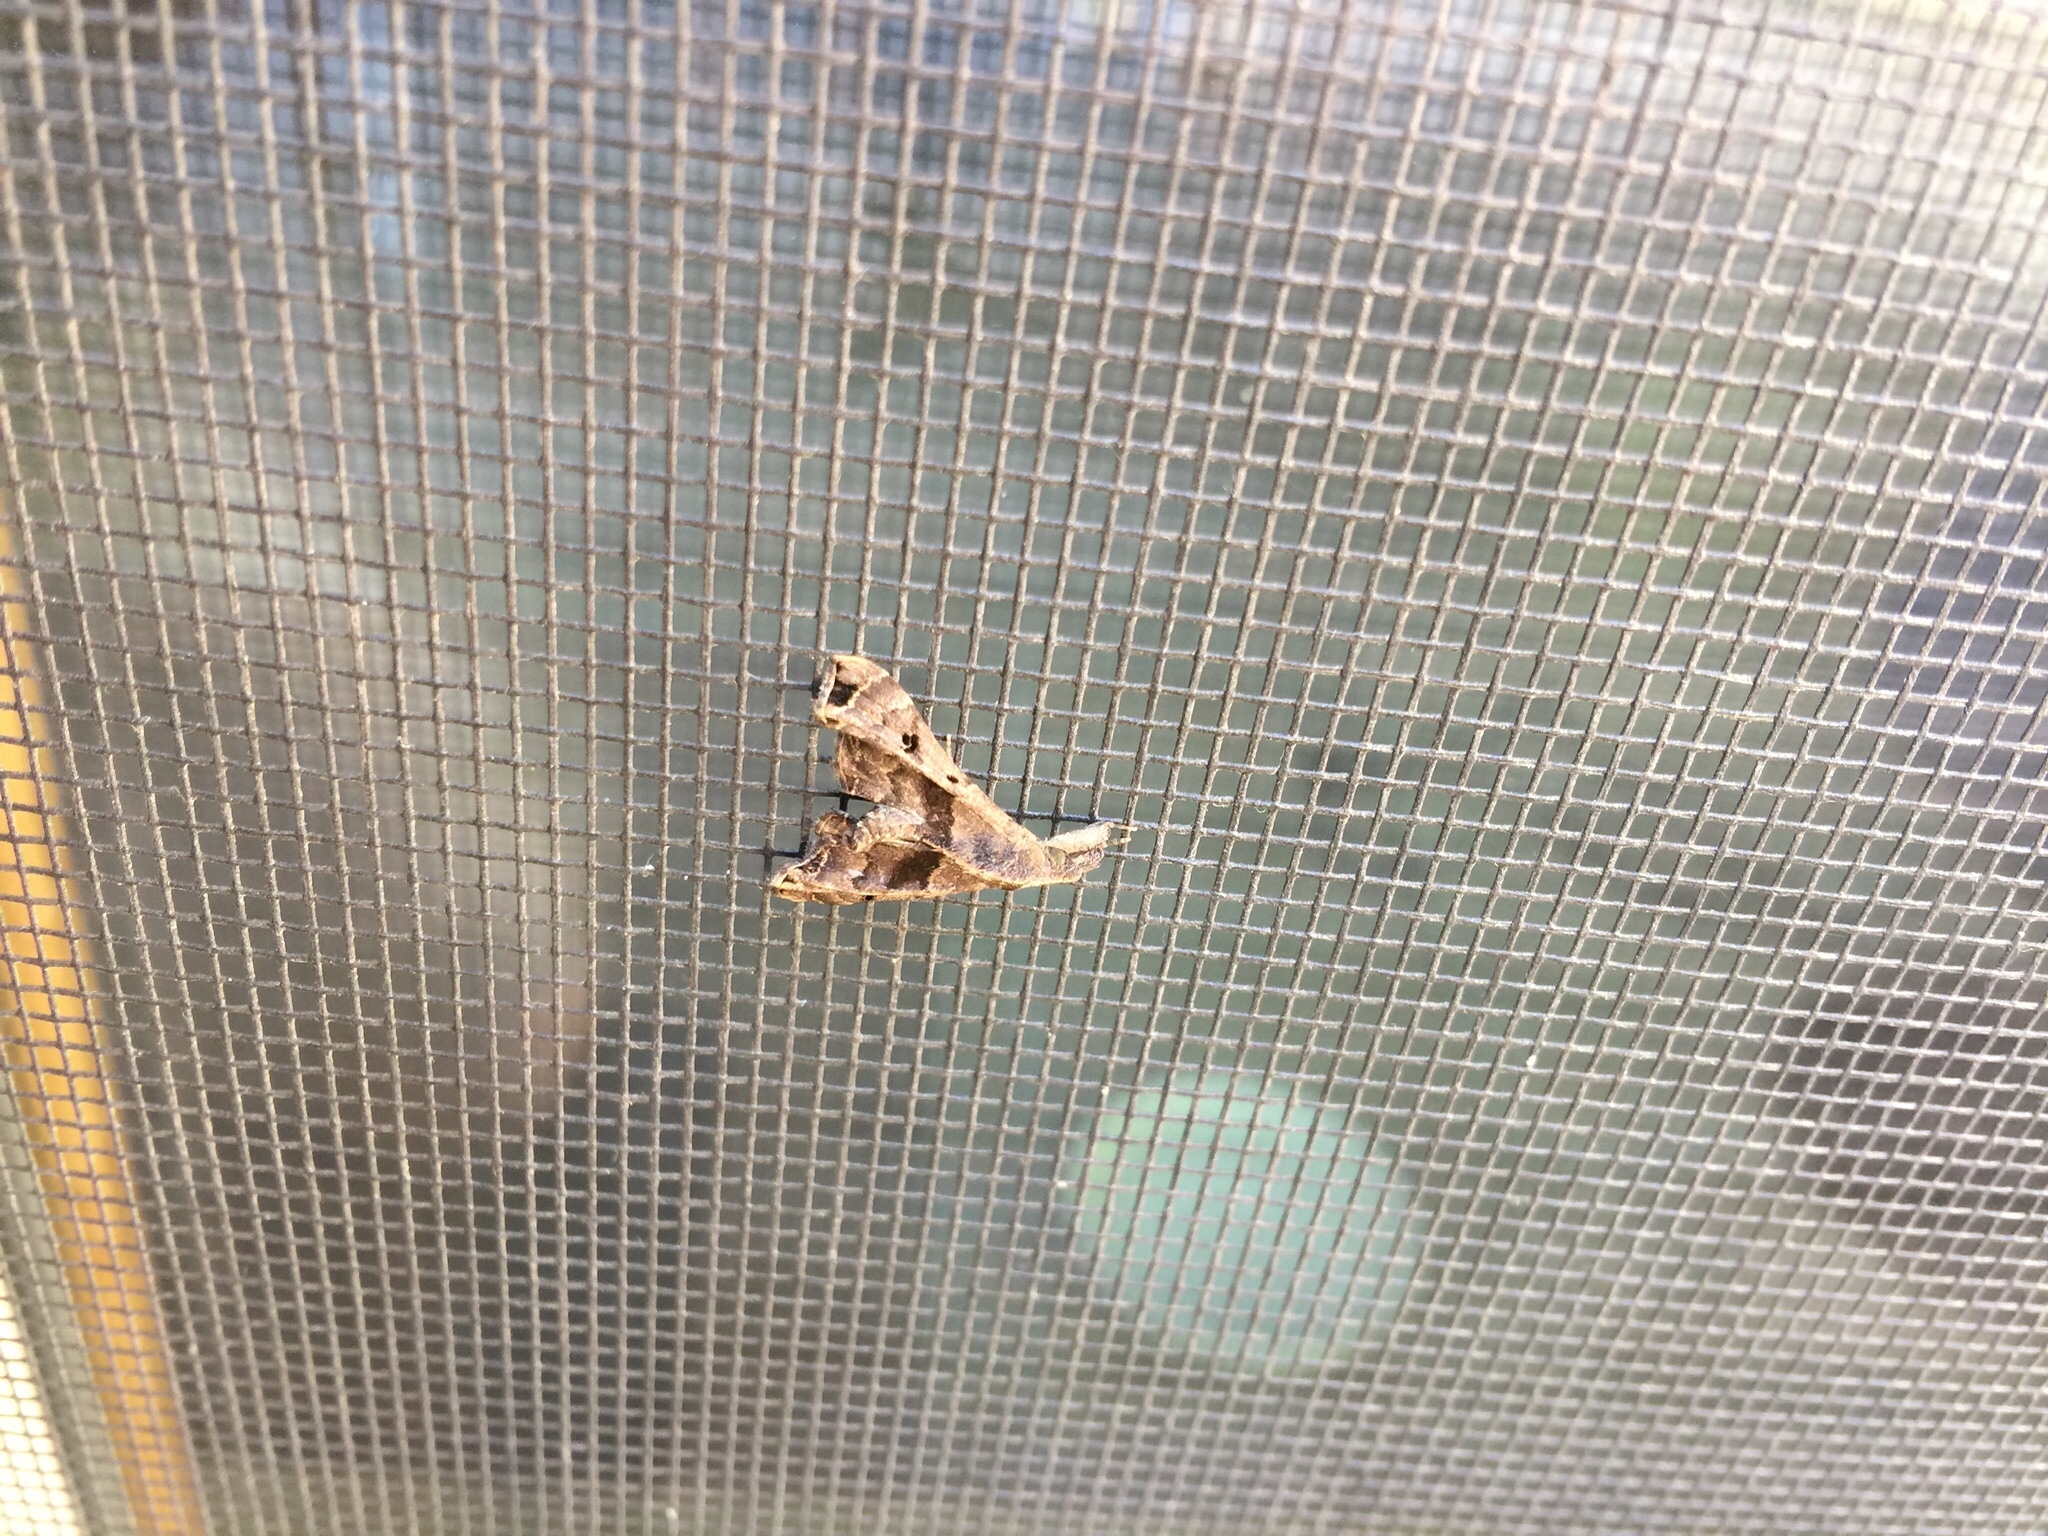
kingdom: Animalia
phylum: Arthropoda
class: Insecta
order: Lepidoptera
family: Erebidae
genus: Palthis
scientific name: Palthis asopialis
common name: Faint-spotted palthis moth
